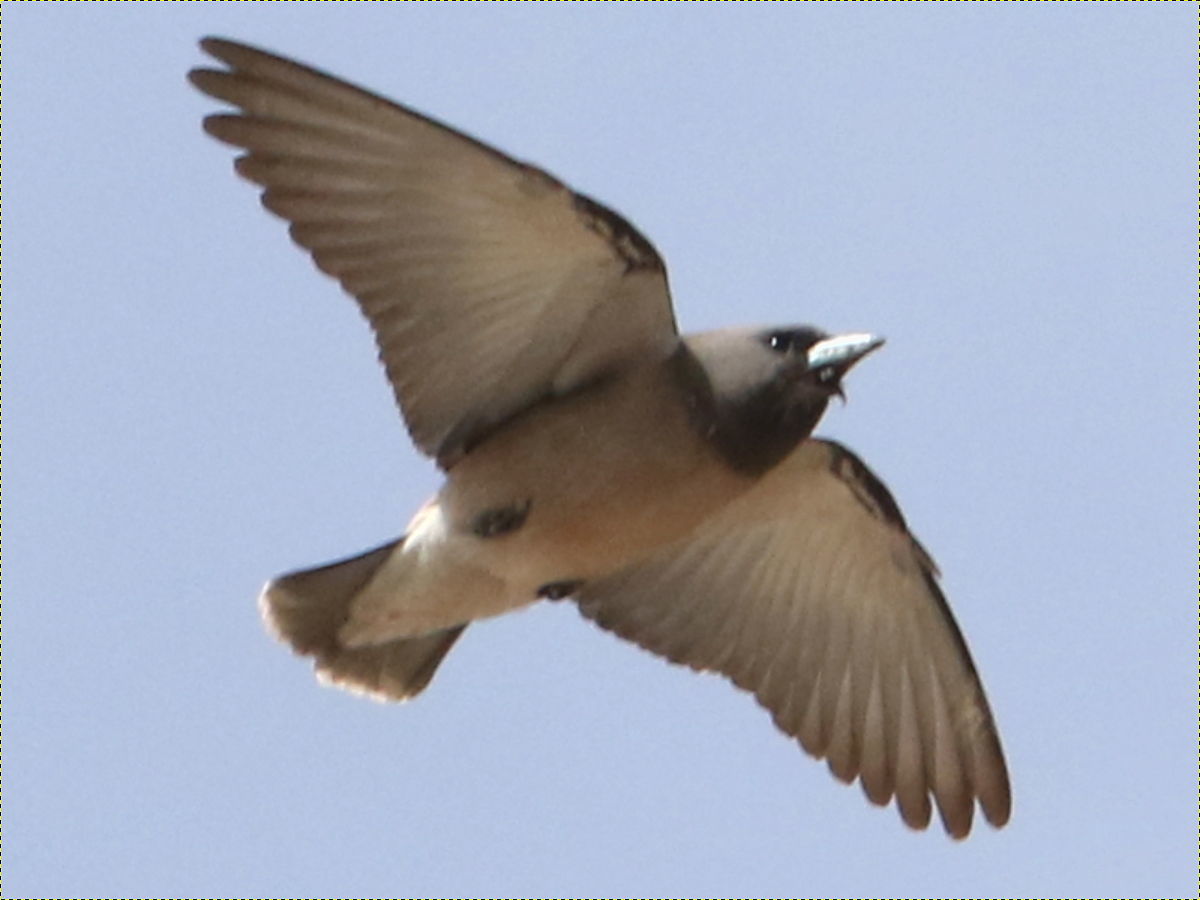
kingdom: Animalia
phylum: Chordata
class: Aves
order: Passeriformes
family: Artamidae
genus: Artamus
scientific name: Artamus fuscus
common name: Ashy woodswallow
